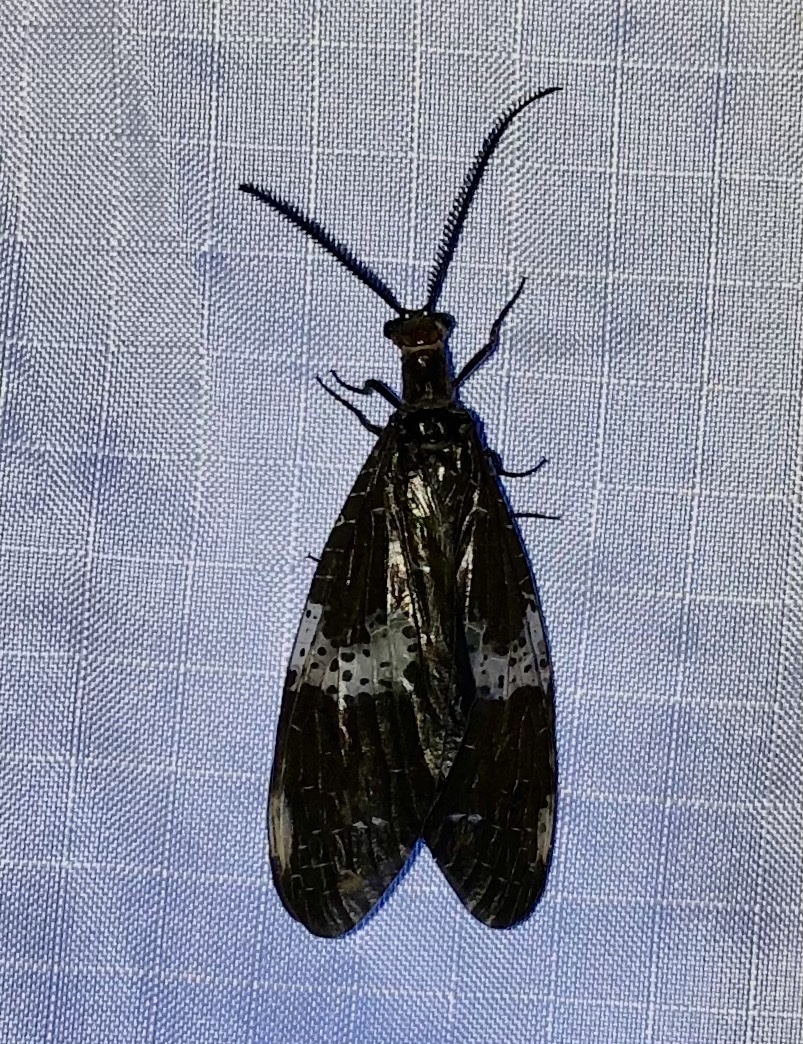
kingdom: Animalia
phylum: Arthropoda
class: Insecta
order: Megaloptera
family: Corydalidae
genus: Nigronia
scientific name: Nigronia fasciata
